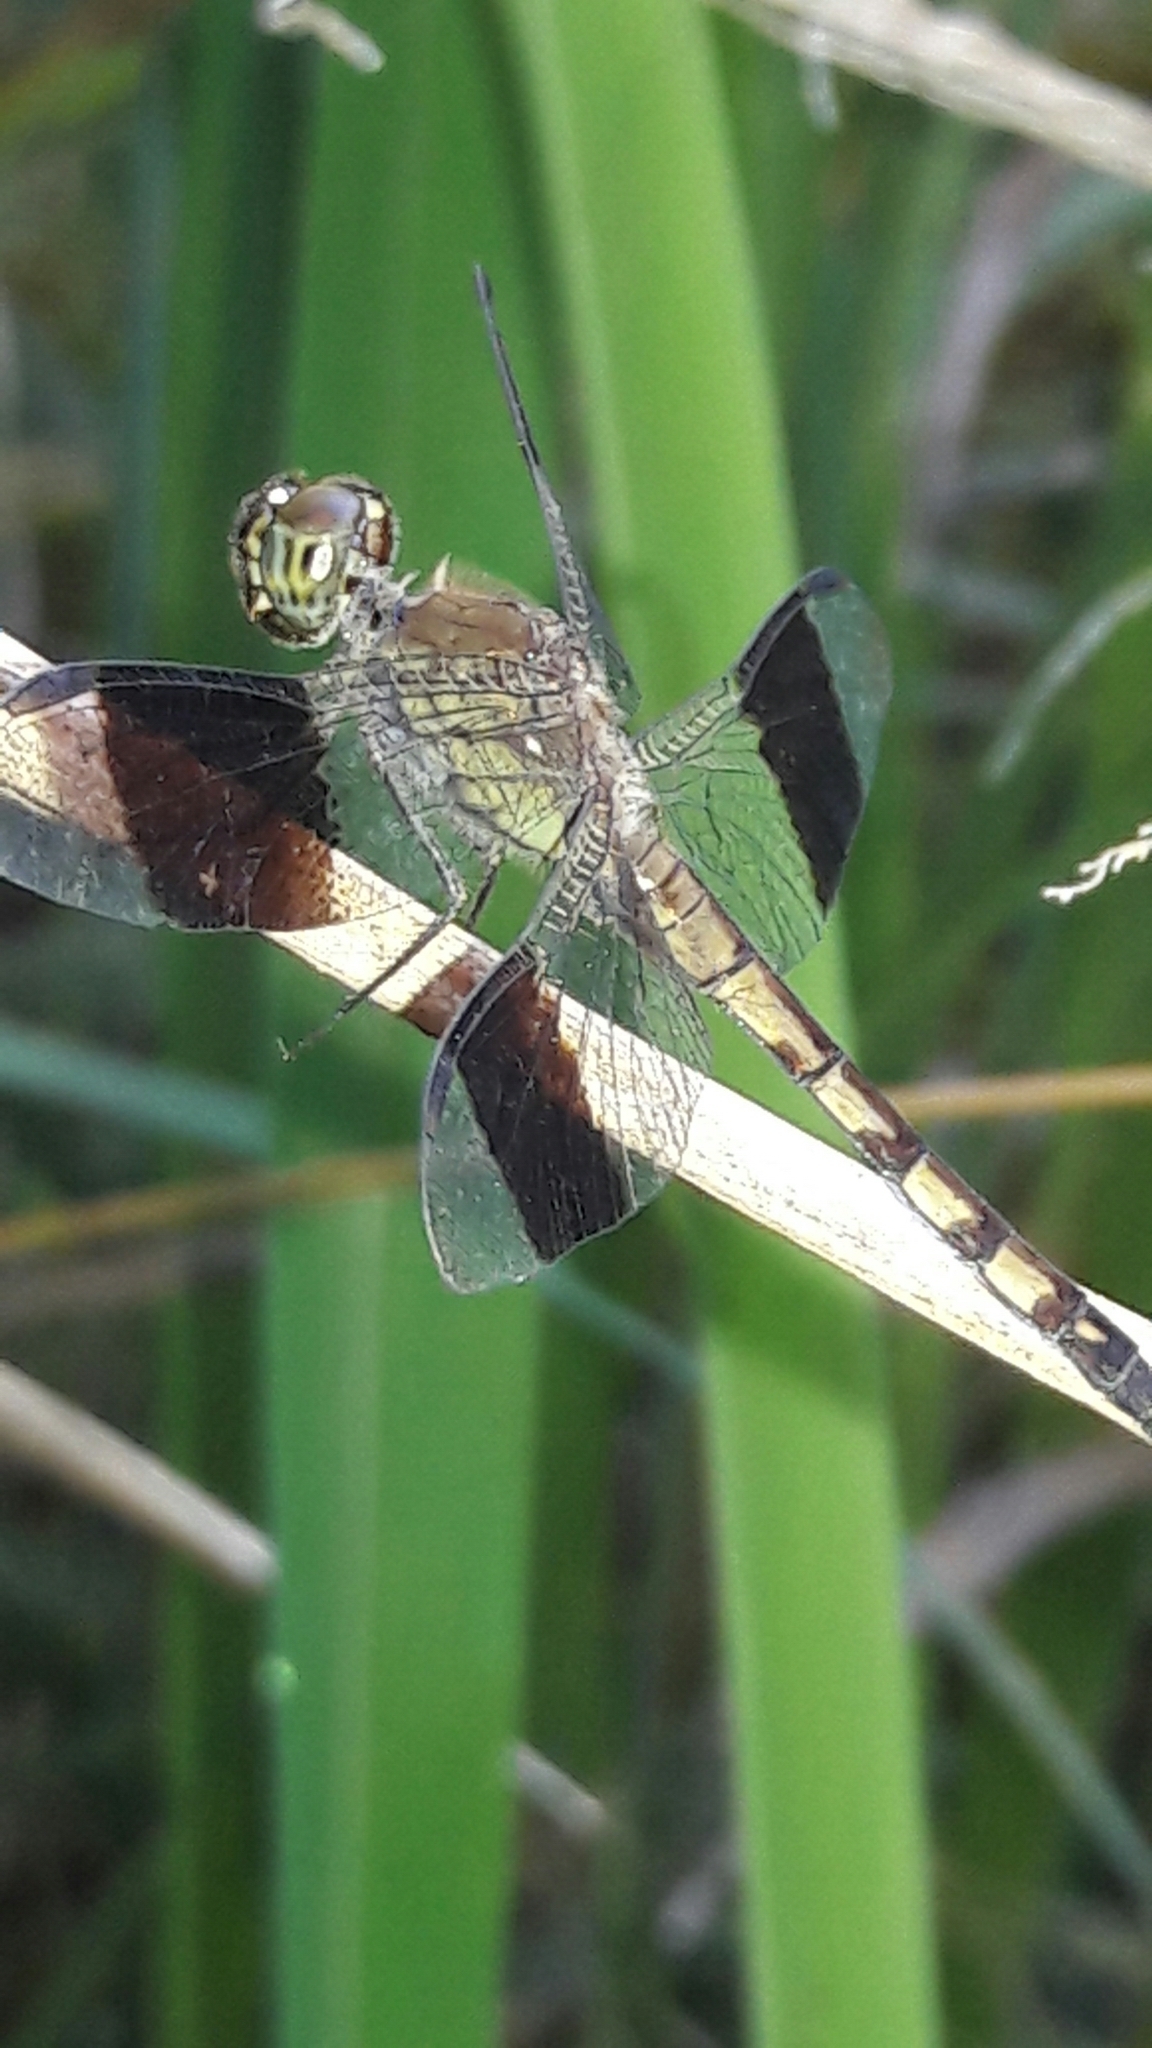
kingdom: Animalia
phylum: Arthropoda
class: Insecta
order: Odonata
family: Libellulidae
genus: Erythrodiplax
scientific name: Erythrodiplax umbrata
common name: Band-winged dragonlet
